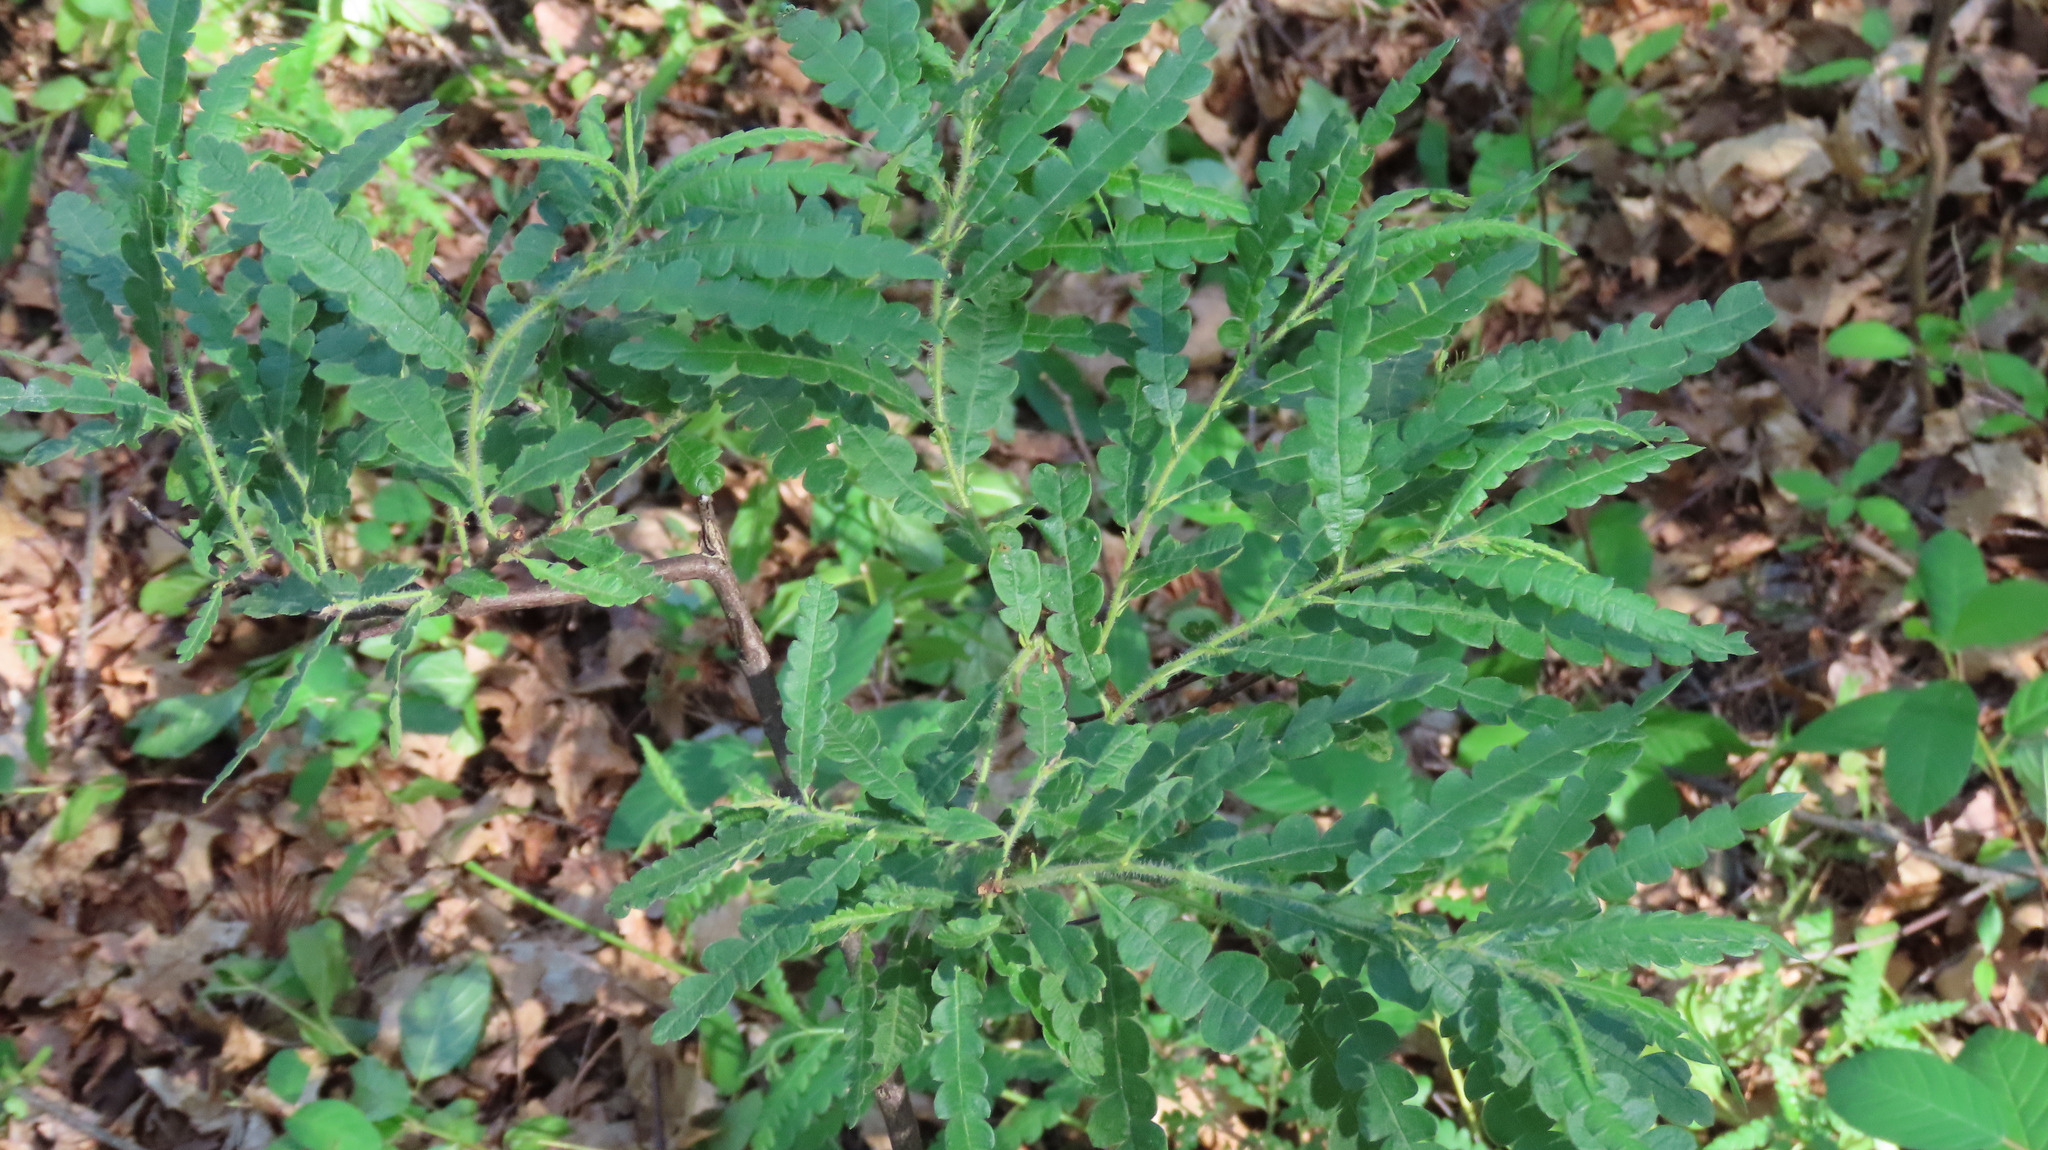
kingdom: Plantae
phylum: Tracheophyta
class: Magnoliopsida
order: Fagales
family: Myricaceae
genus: Comptonia
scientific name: Comptonia peregrina
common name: Sweet-fern
